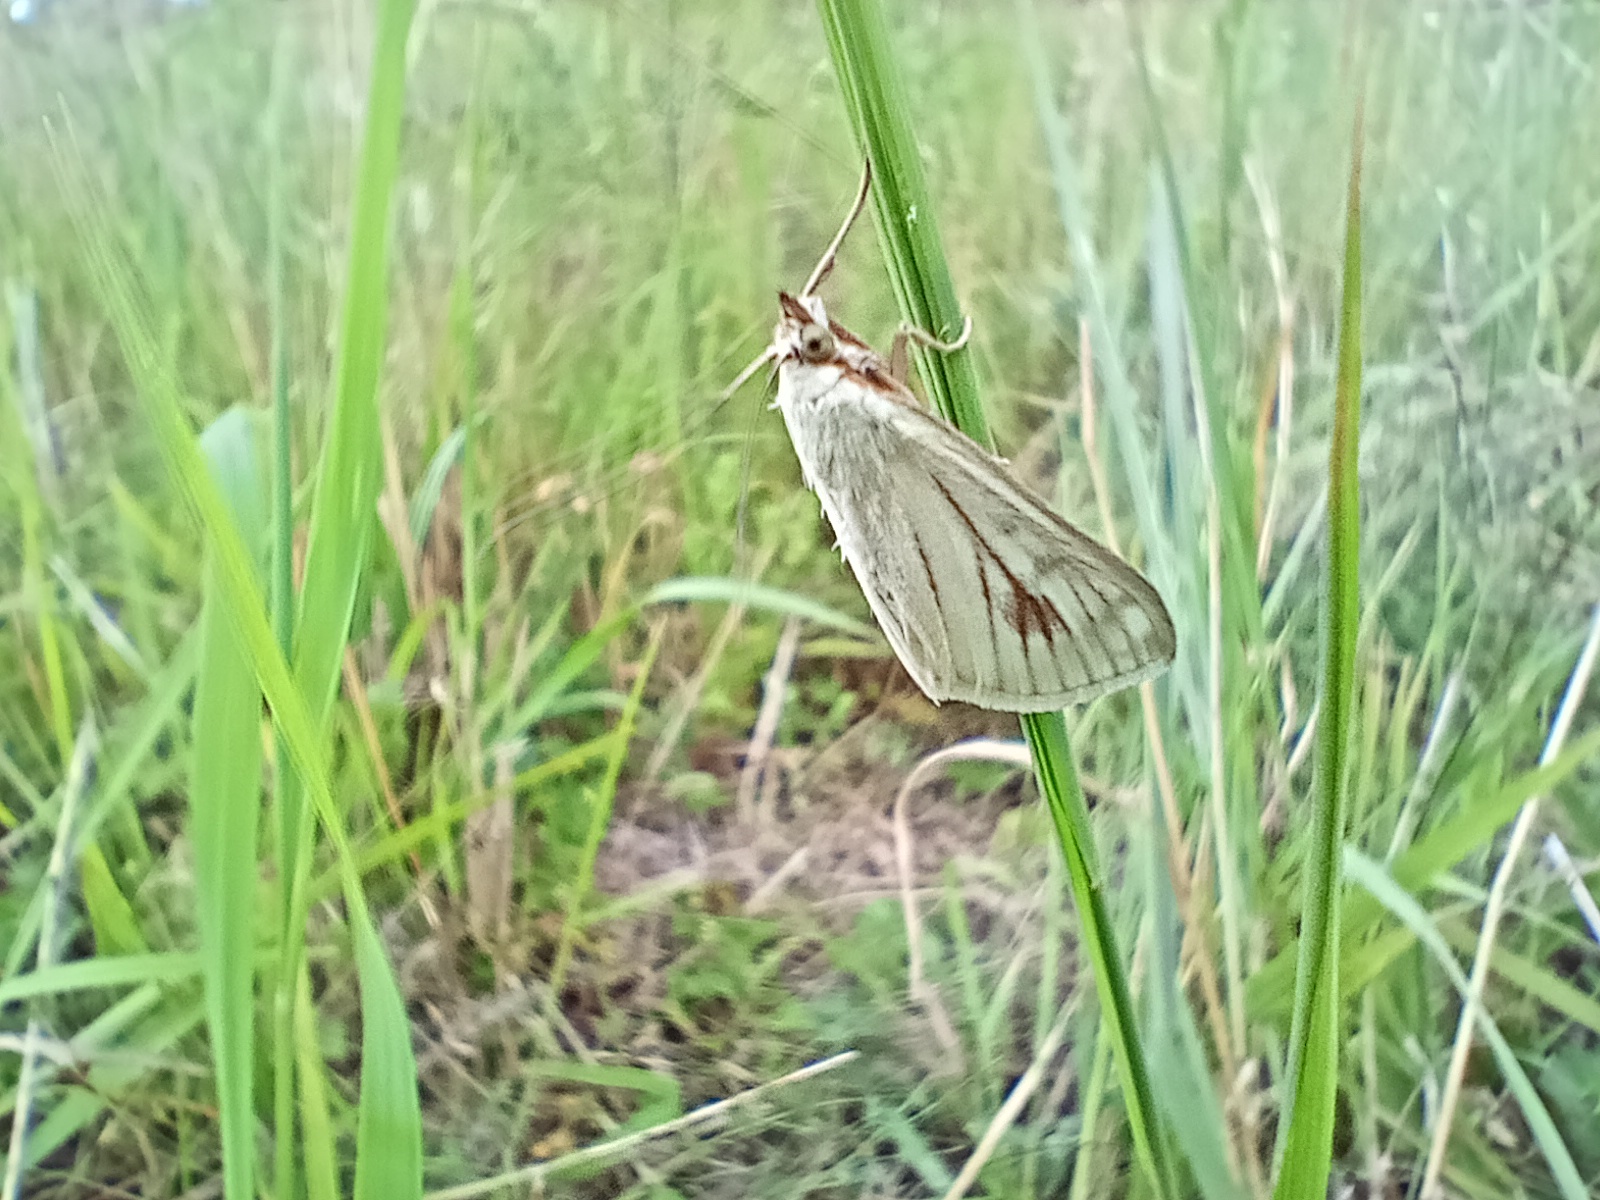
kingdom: Animalia
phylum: Arthropoda
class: Insecta
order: Lepidoptera
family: Crambidae
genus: Sitochroa
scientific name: Sitochroa palealis
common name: Greenish-yellow sitochroa moth
